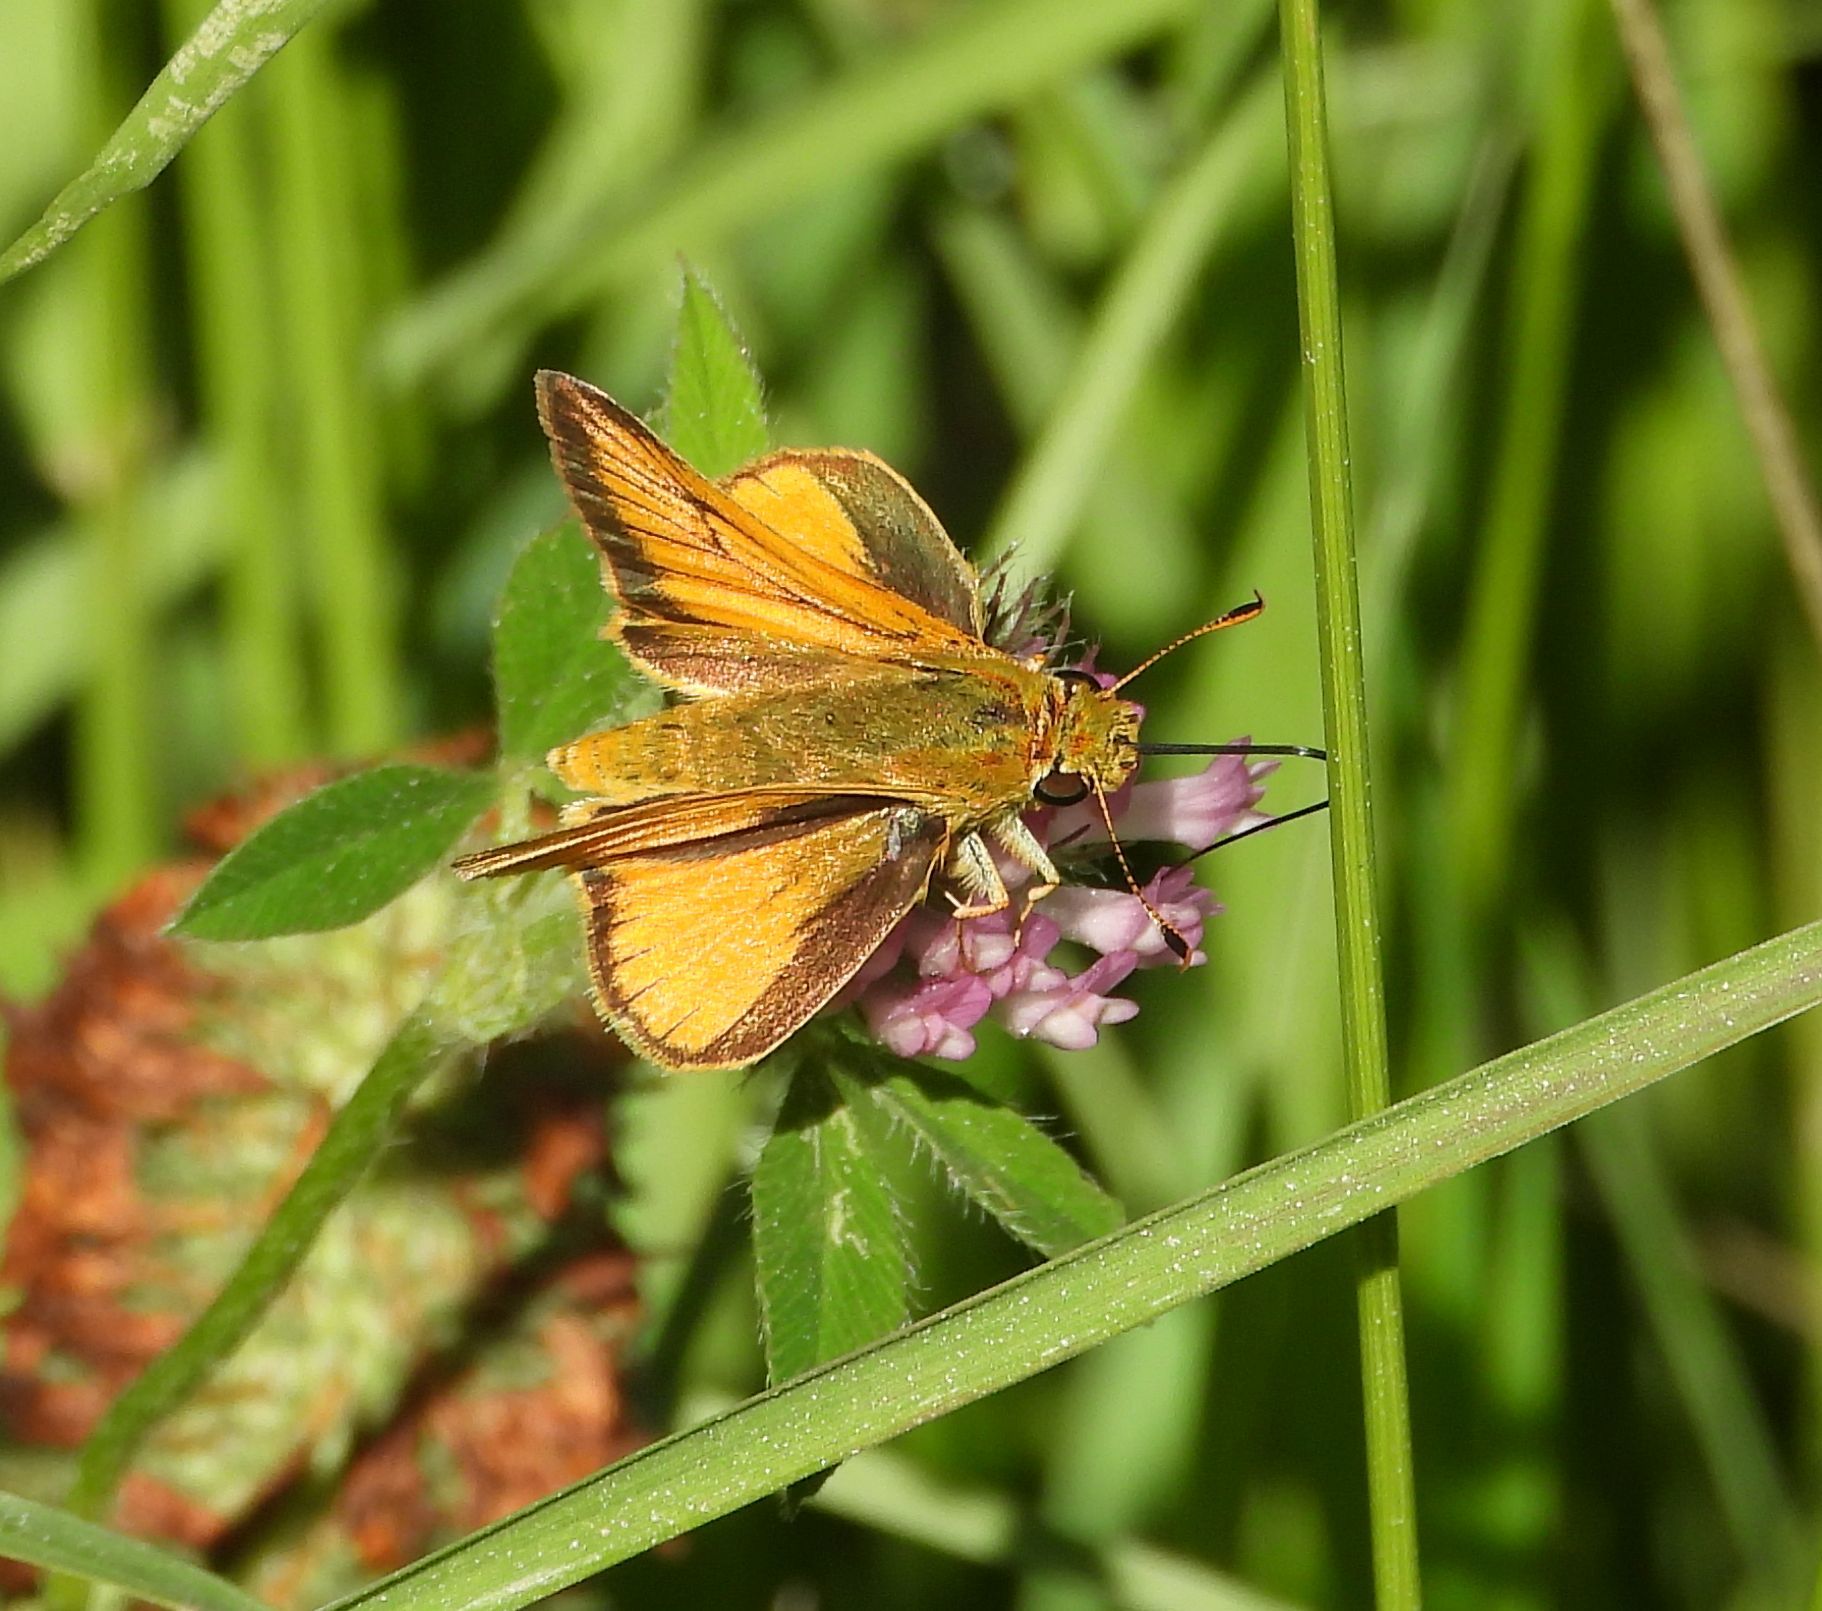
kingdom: Animalia
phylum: Arthropoda
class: Insecta
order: Lepidoptera
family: Hesperiidae
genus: Atrytone
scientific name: Atrytone delaware
